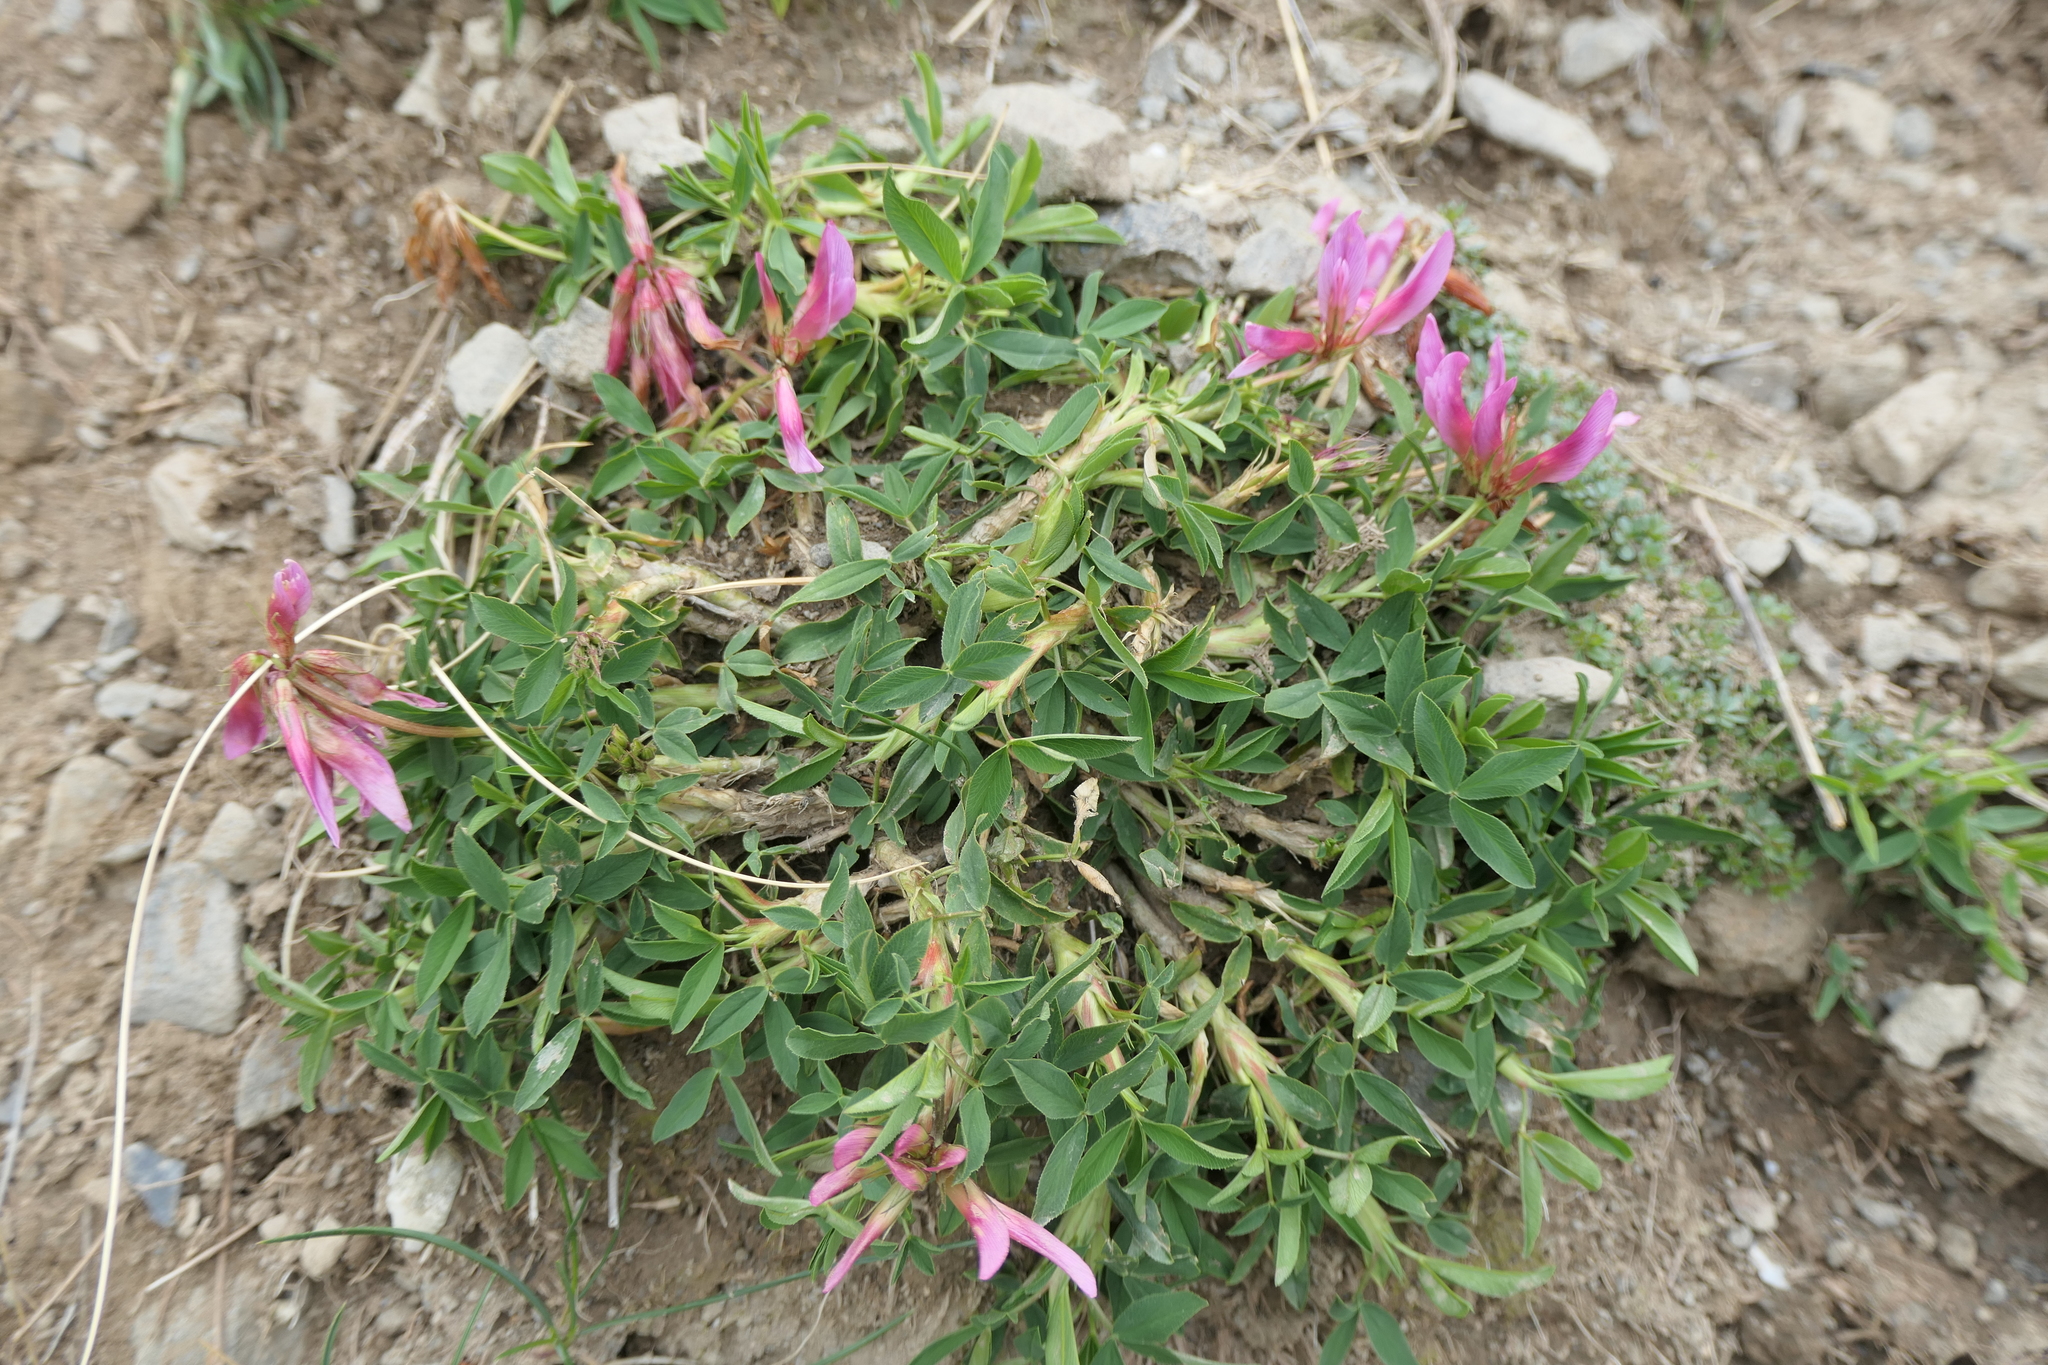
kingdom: Plantae
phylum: Tracheophyta
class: Magnoliopsida
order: Fabales
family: Fabaceae
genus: Trifolium
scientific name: Trifolium alpinum
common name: Alpine clover
